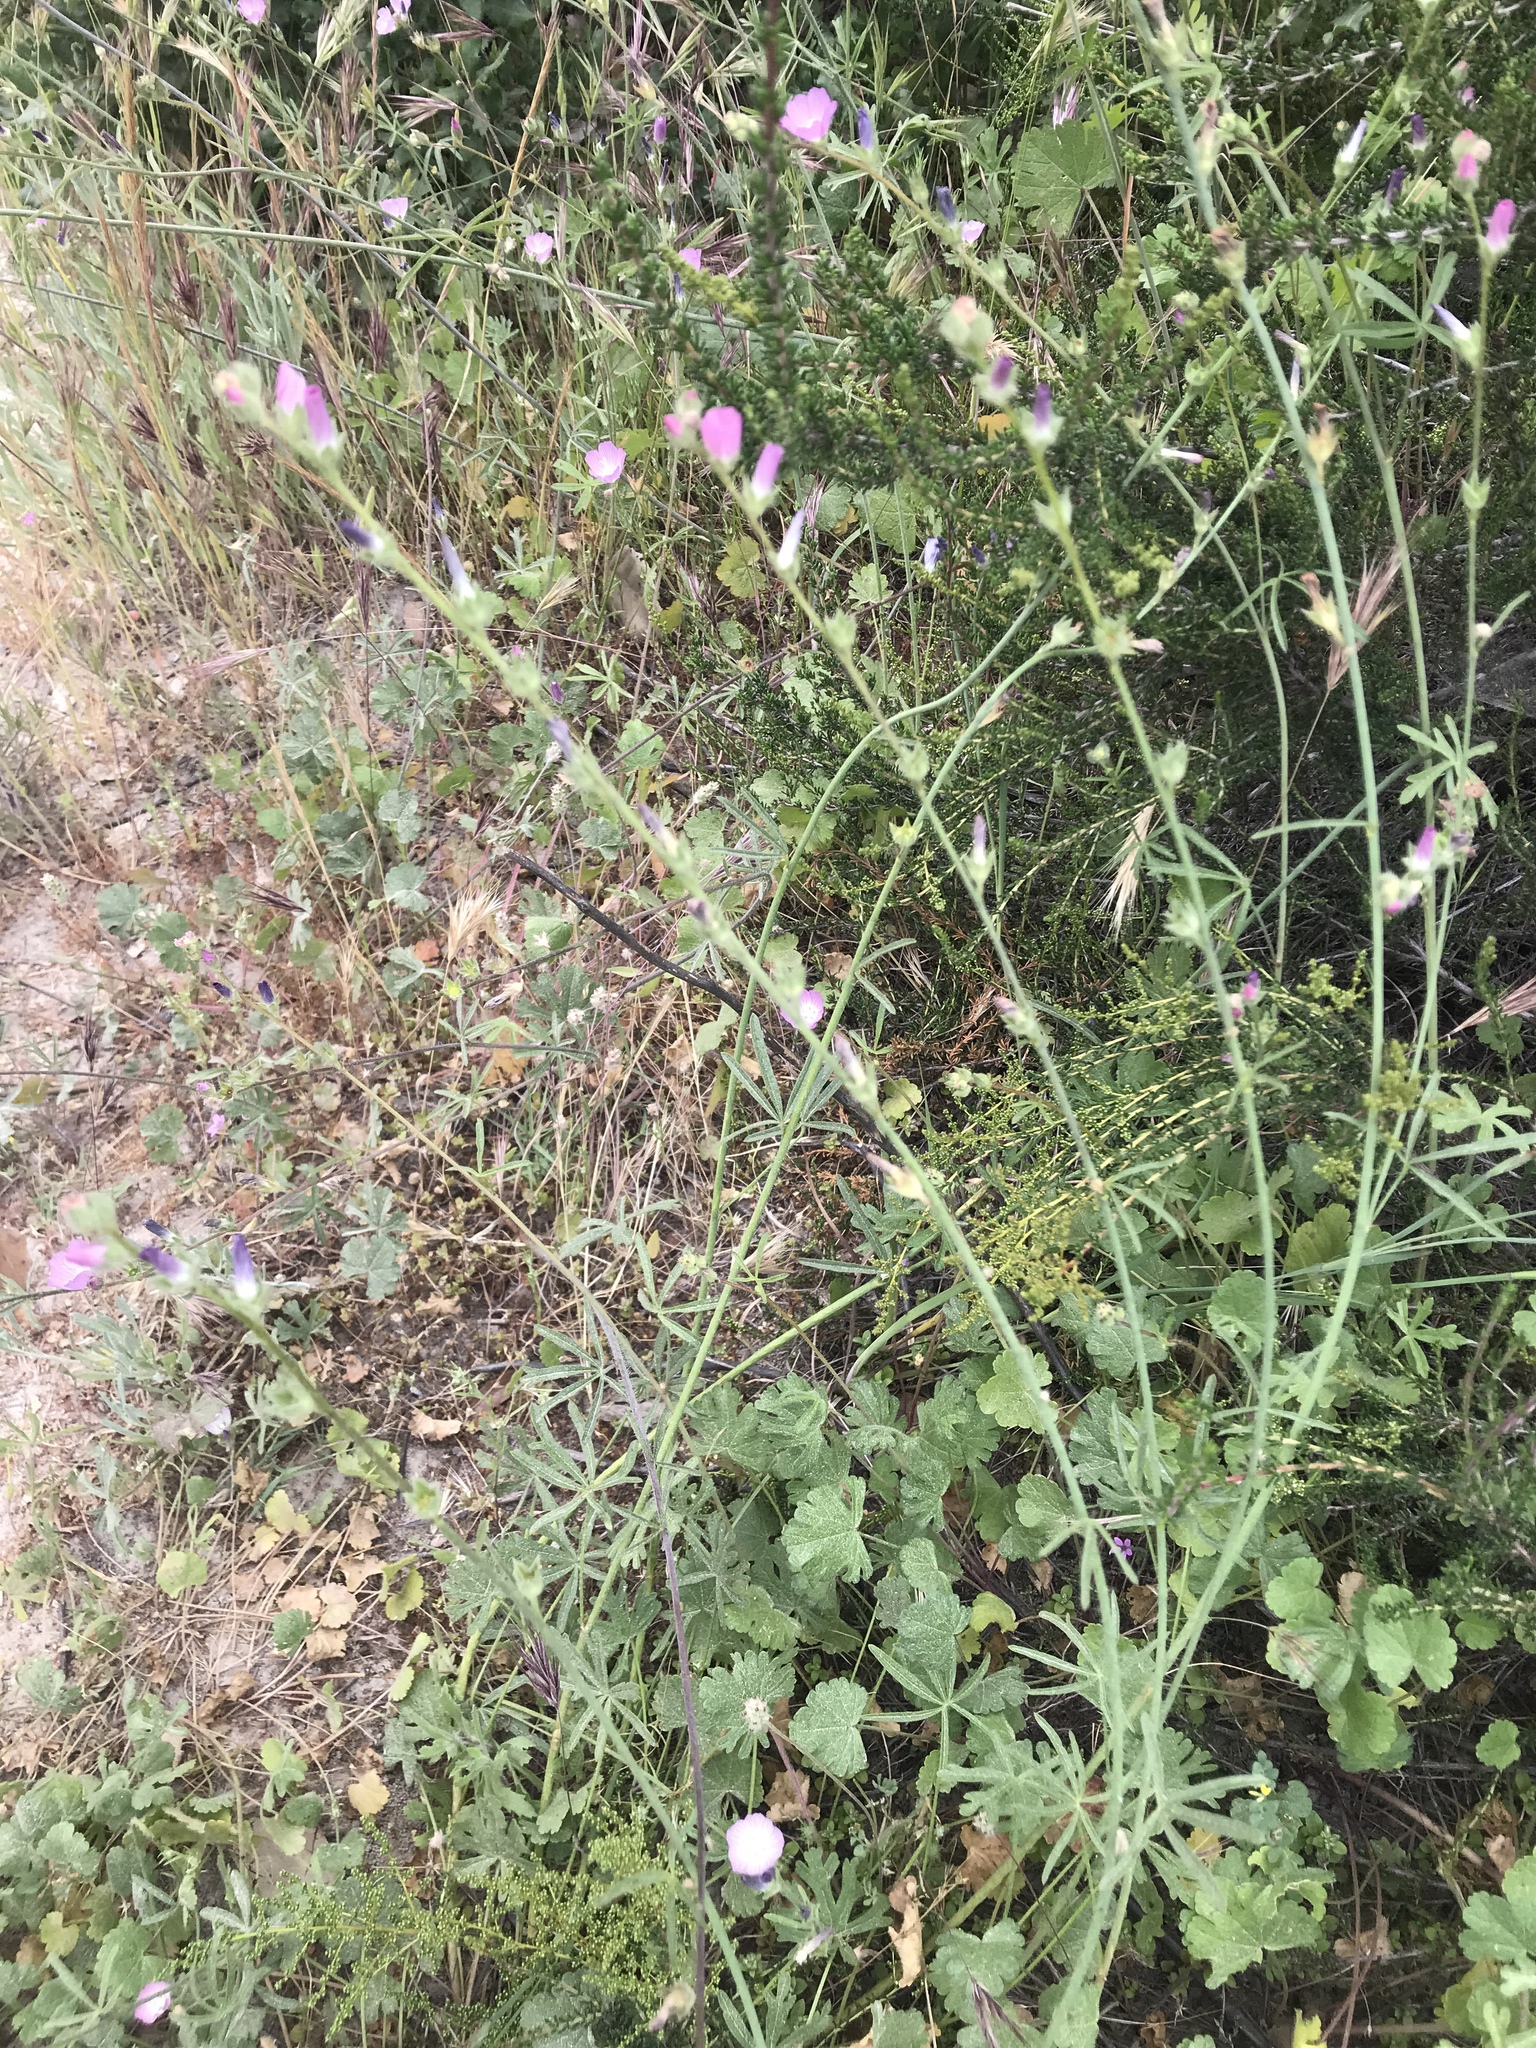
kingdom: Plantae
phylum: Tracheophyta
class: Magnoliopsida
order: Malvales
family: Malvaceae
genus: Sidalcea
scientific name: Sidalcea sparsifolia
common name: Southern checkerbloom
